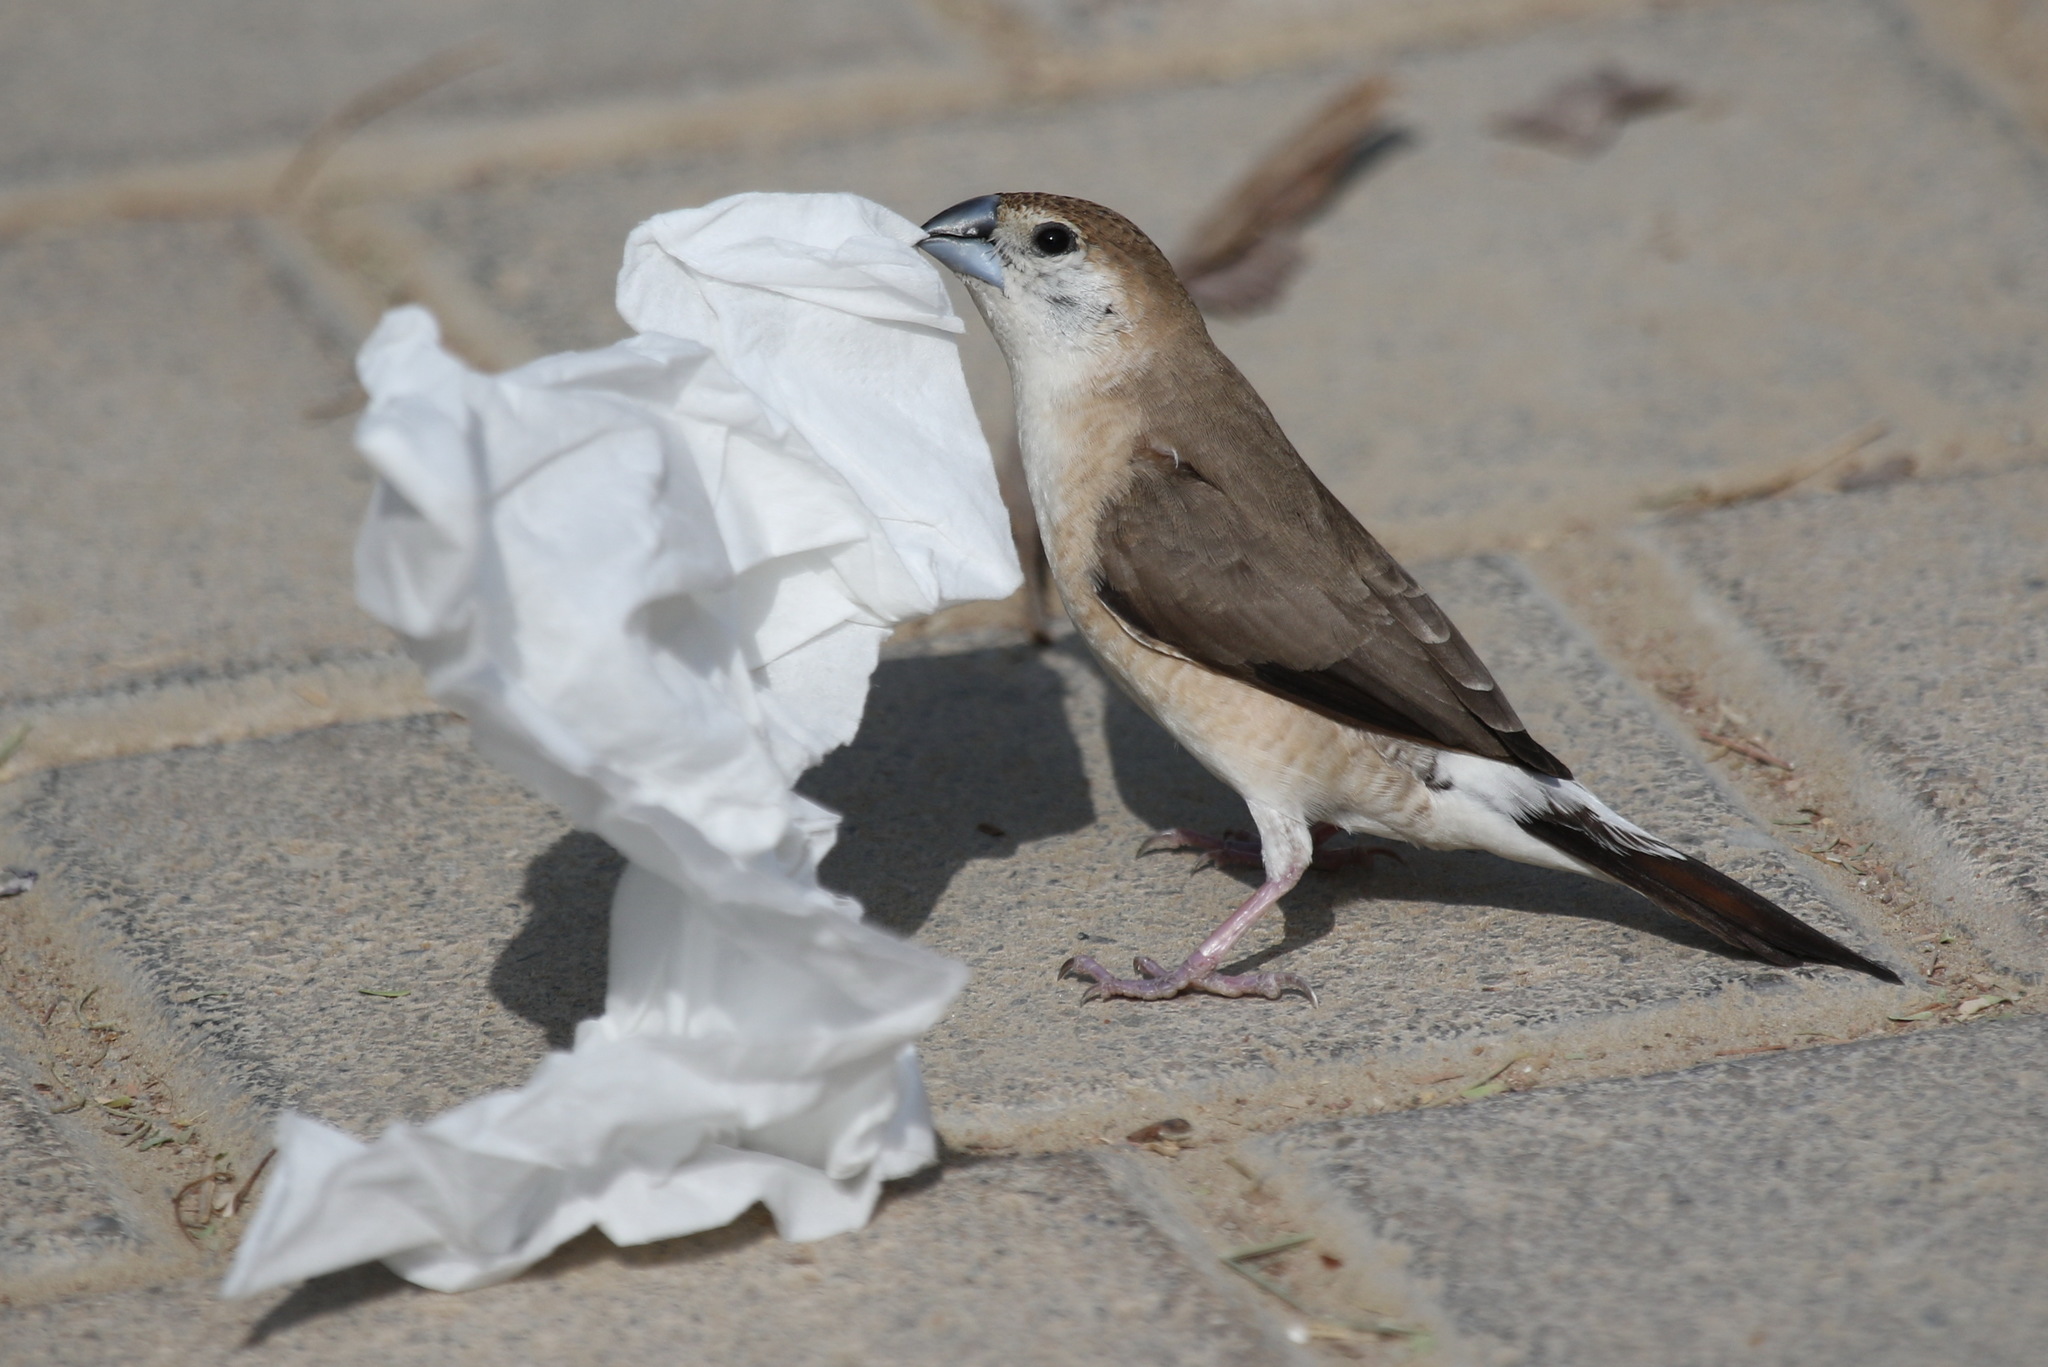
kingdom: Animalia
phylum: Chordata
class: Aves
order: Passeriformes
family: Estrildidae
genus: Euodice
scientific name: Euodice malabarica
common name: Indian silverbill
